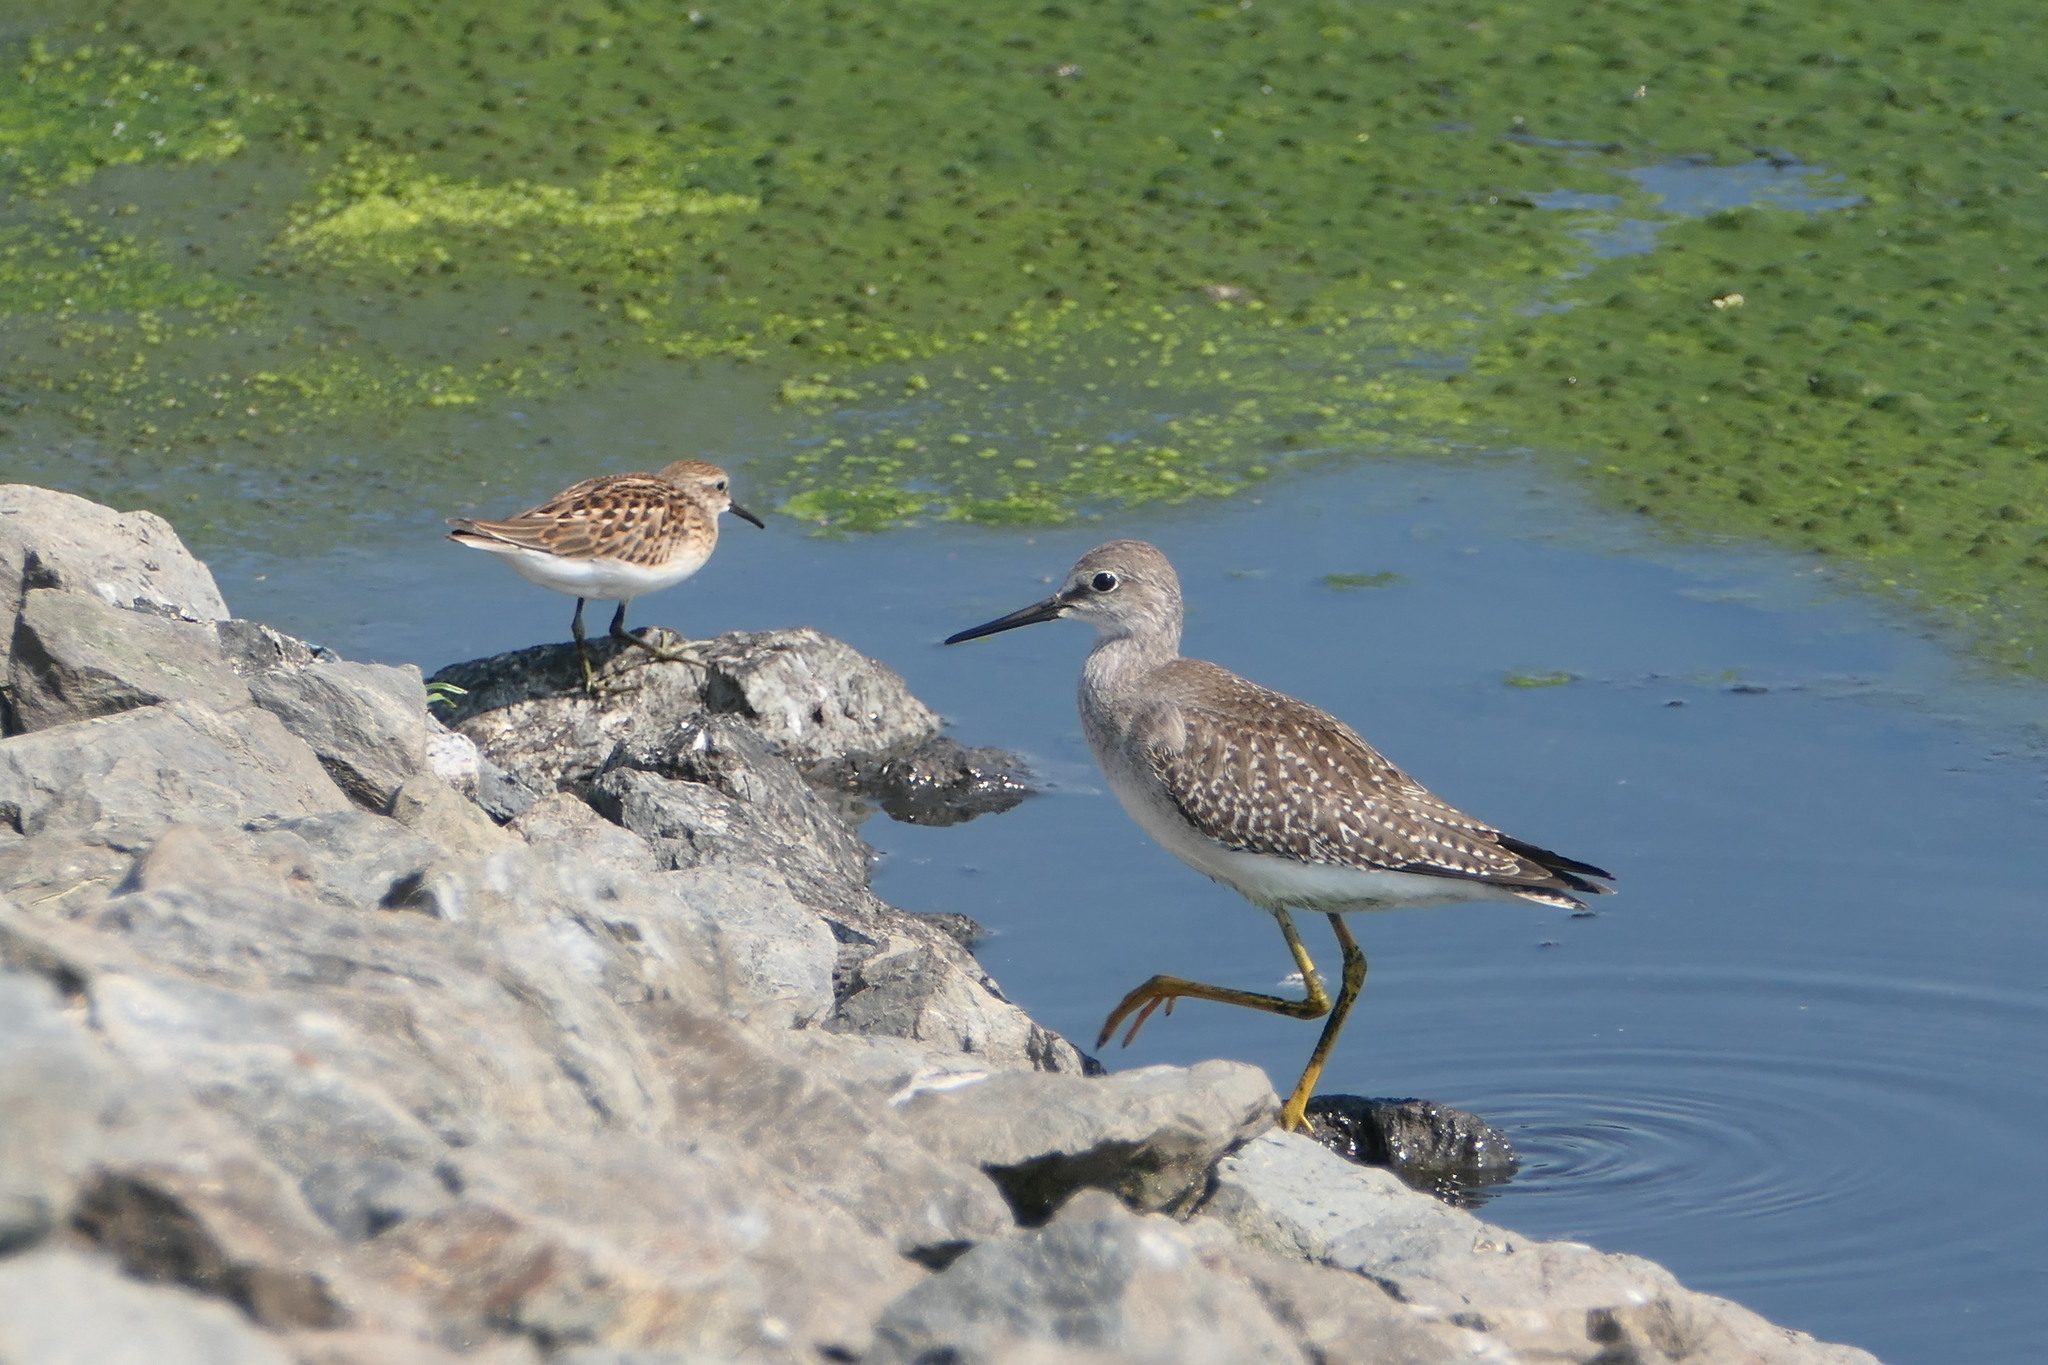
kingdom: Animalia
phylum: Chordata
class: Aves
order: Charadriiformes
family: Scolopacidae
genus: Tringa
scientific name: Tringa flavipes
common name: Lesser yellowlegs
